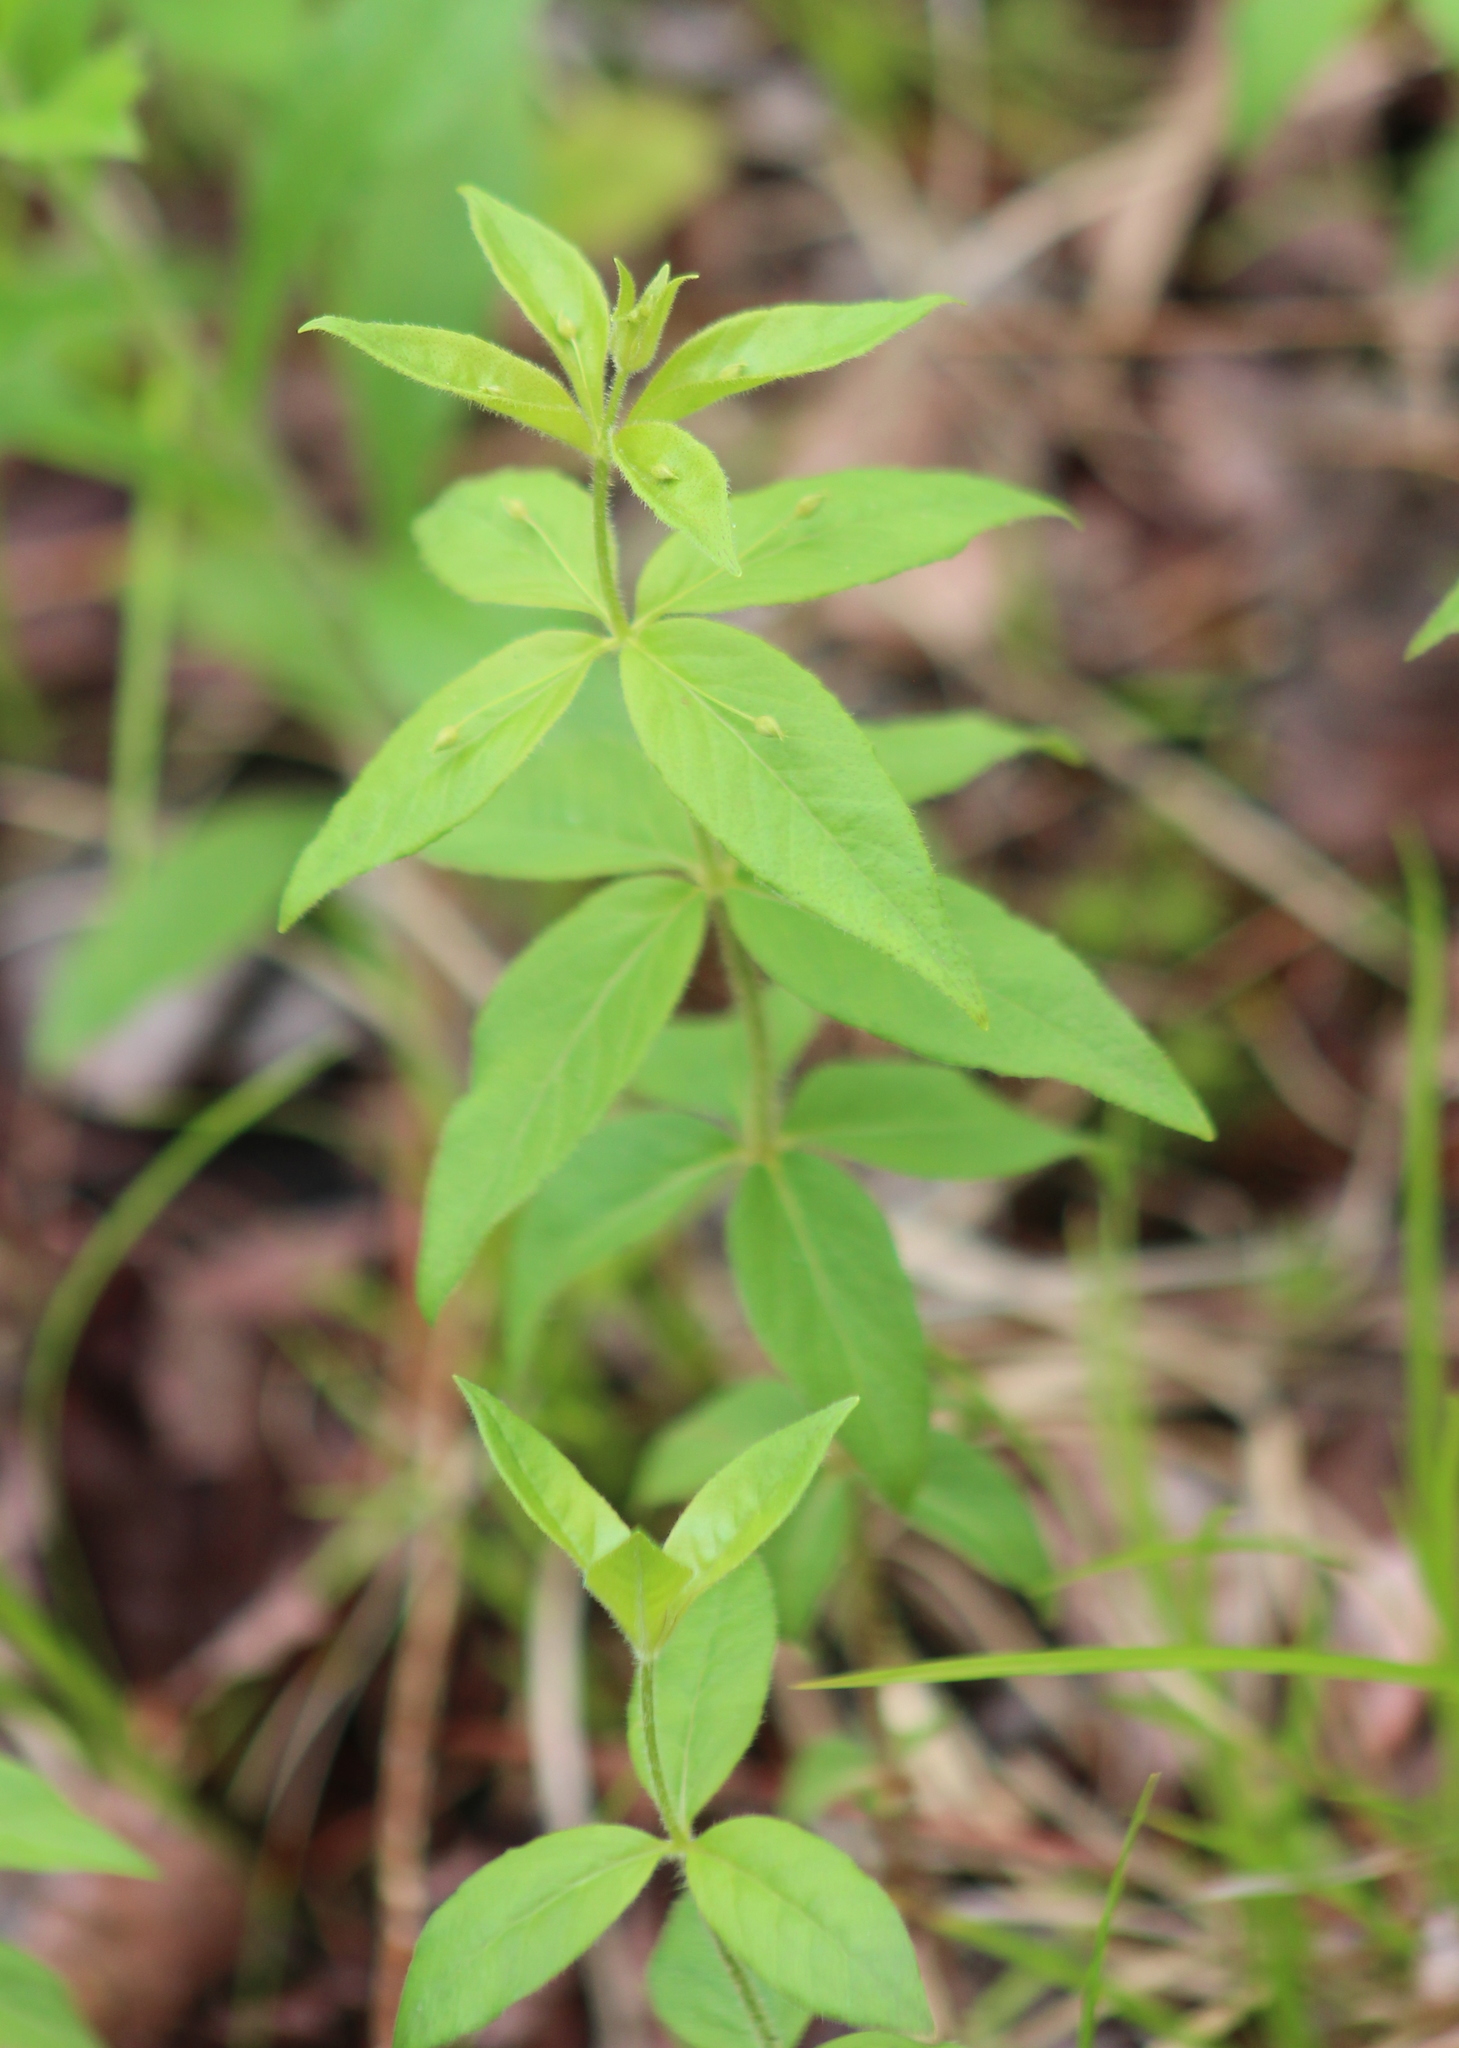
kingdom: Plantae
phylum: Tracheophyta
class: Magnoliopsida
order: Ericales
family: Primulaceae
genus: Lysimachia
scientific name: Lysimachia quadrifolia
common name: Whorled loosestrife
